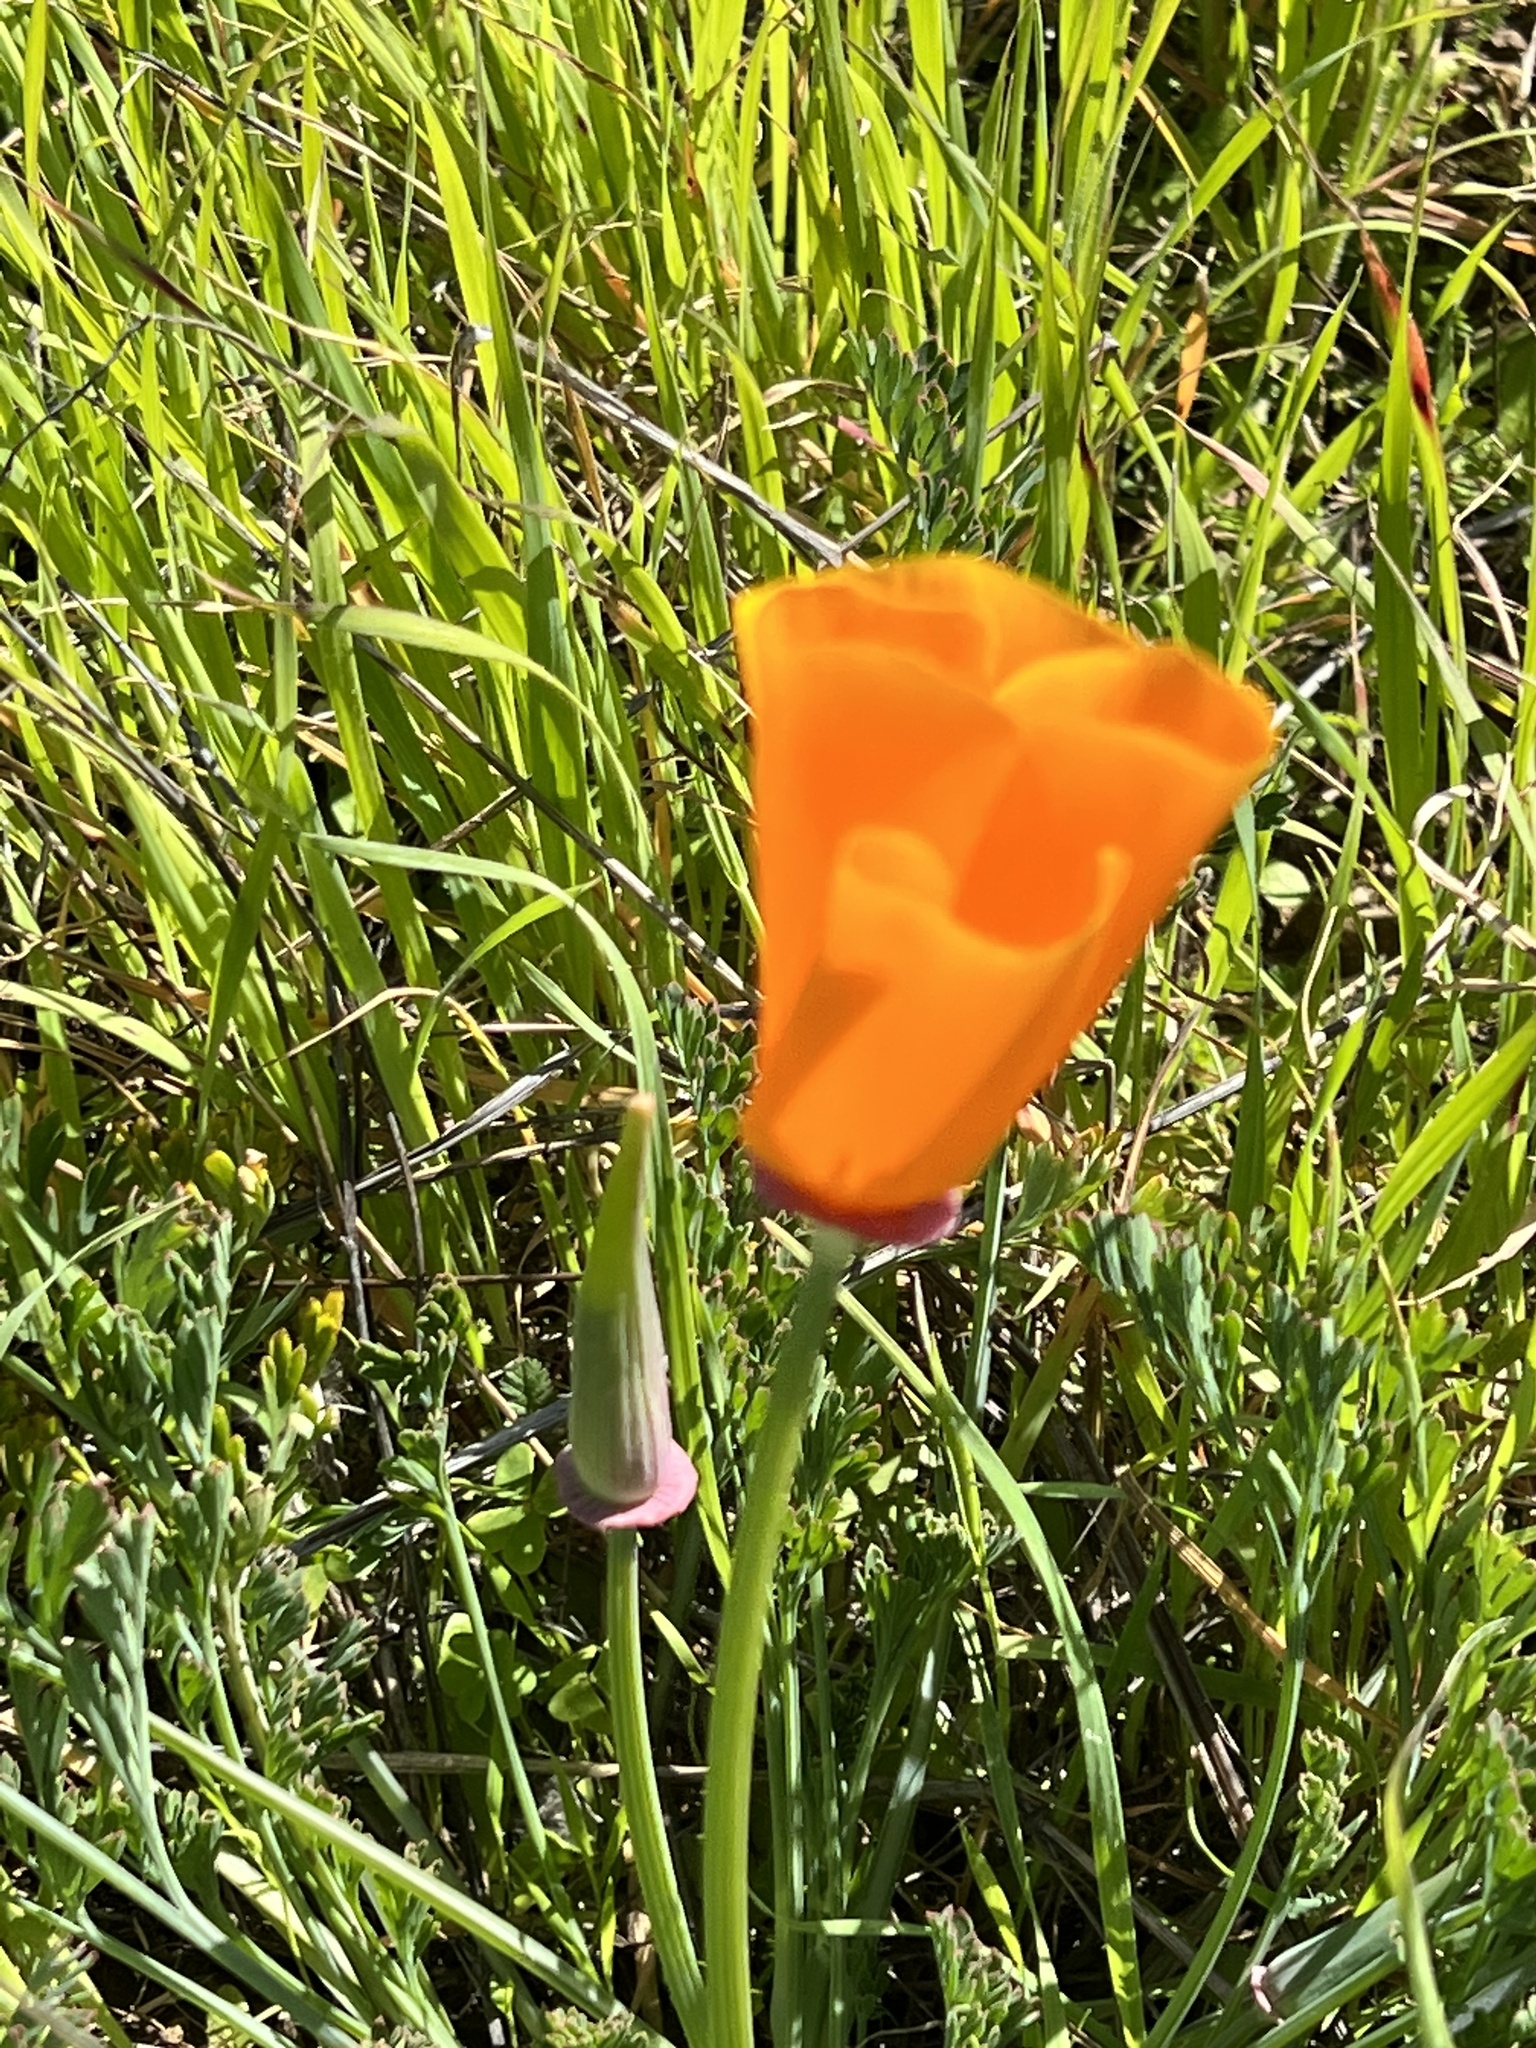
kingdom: Plantae
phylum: Tracheophyta
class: Magnoliopsida
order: Ranunculales
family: Papaveraceae
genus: Eschscholzia
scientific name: Eschscholzia californica
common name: California poppy
